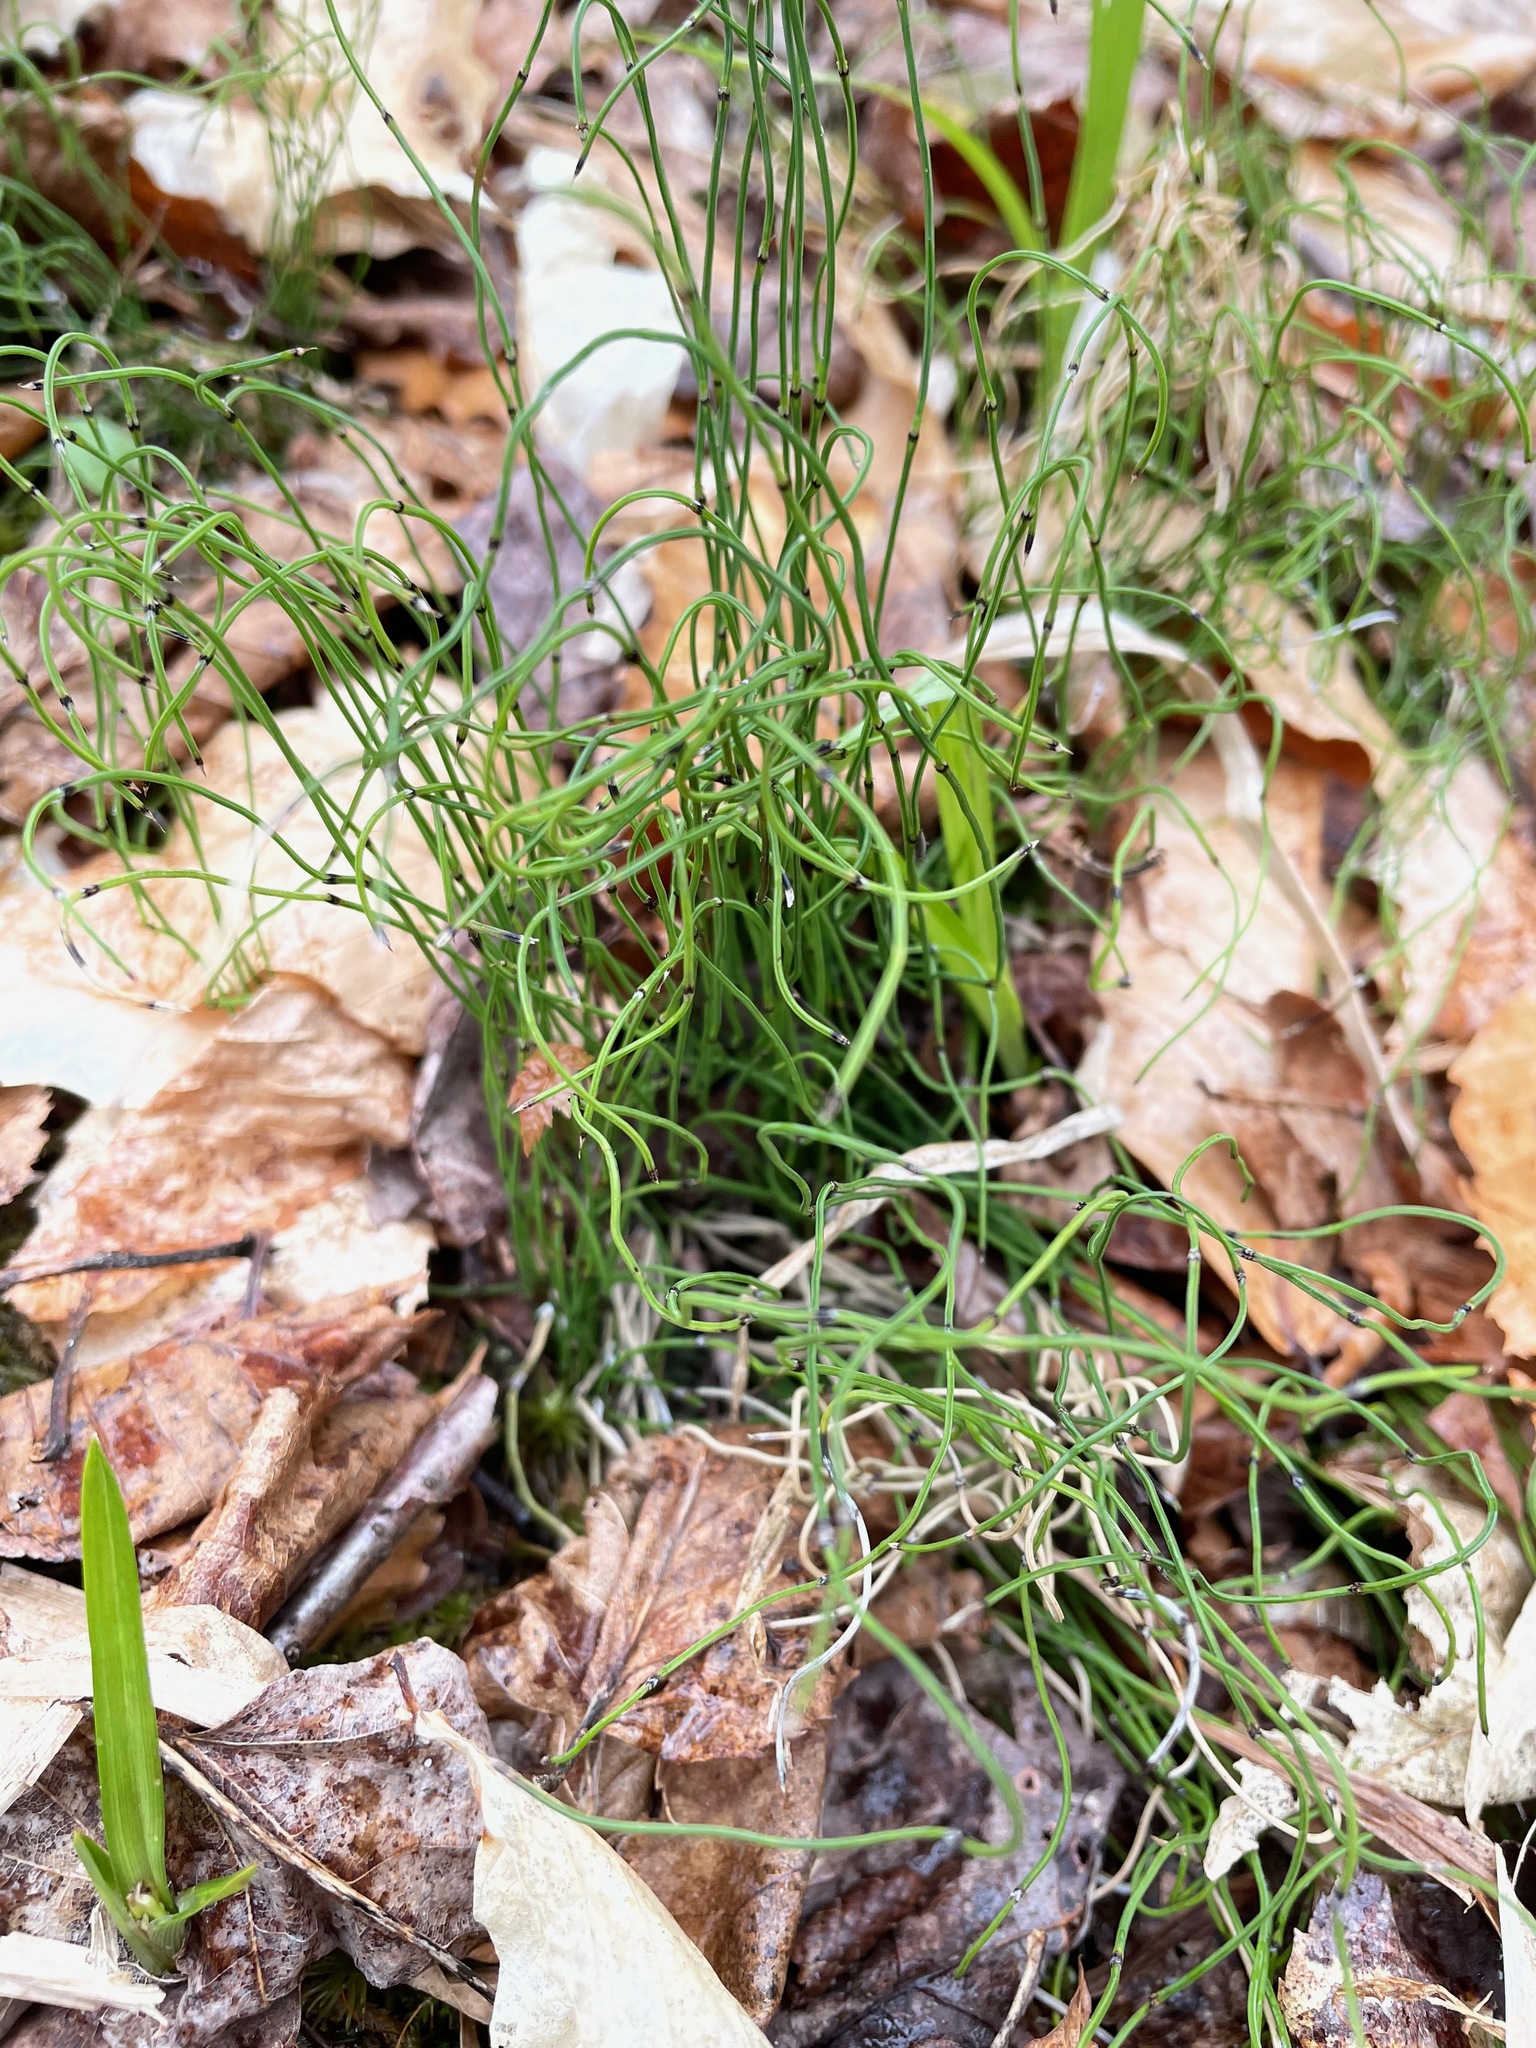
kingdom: Plantae
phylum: Tracheophyta
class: Polypodiopsida
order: Equisetales
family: Equisetaceae
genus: Equisetum
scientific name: Equisetum scirpoides
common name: Delicate horsetail
